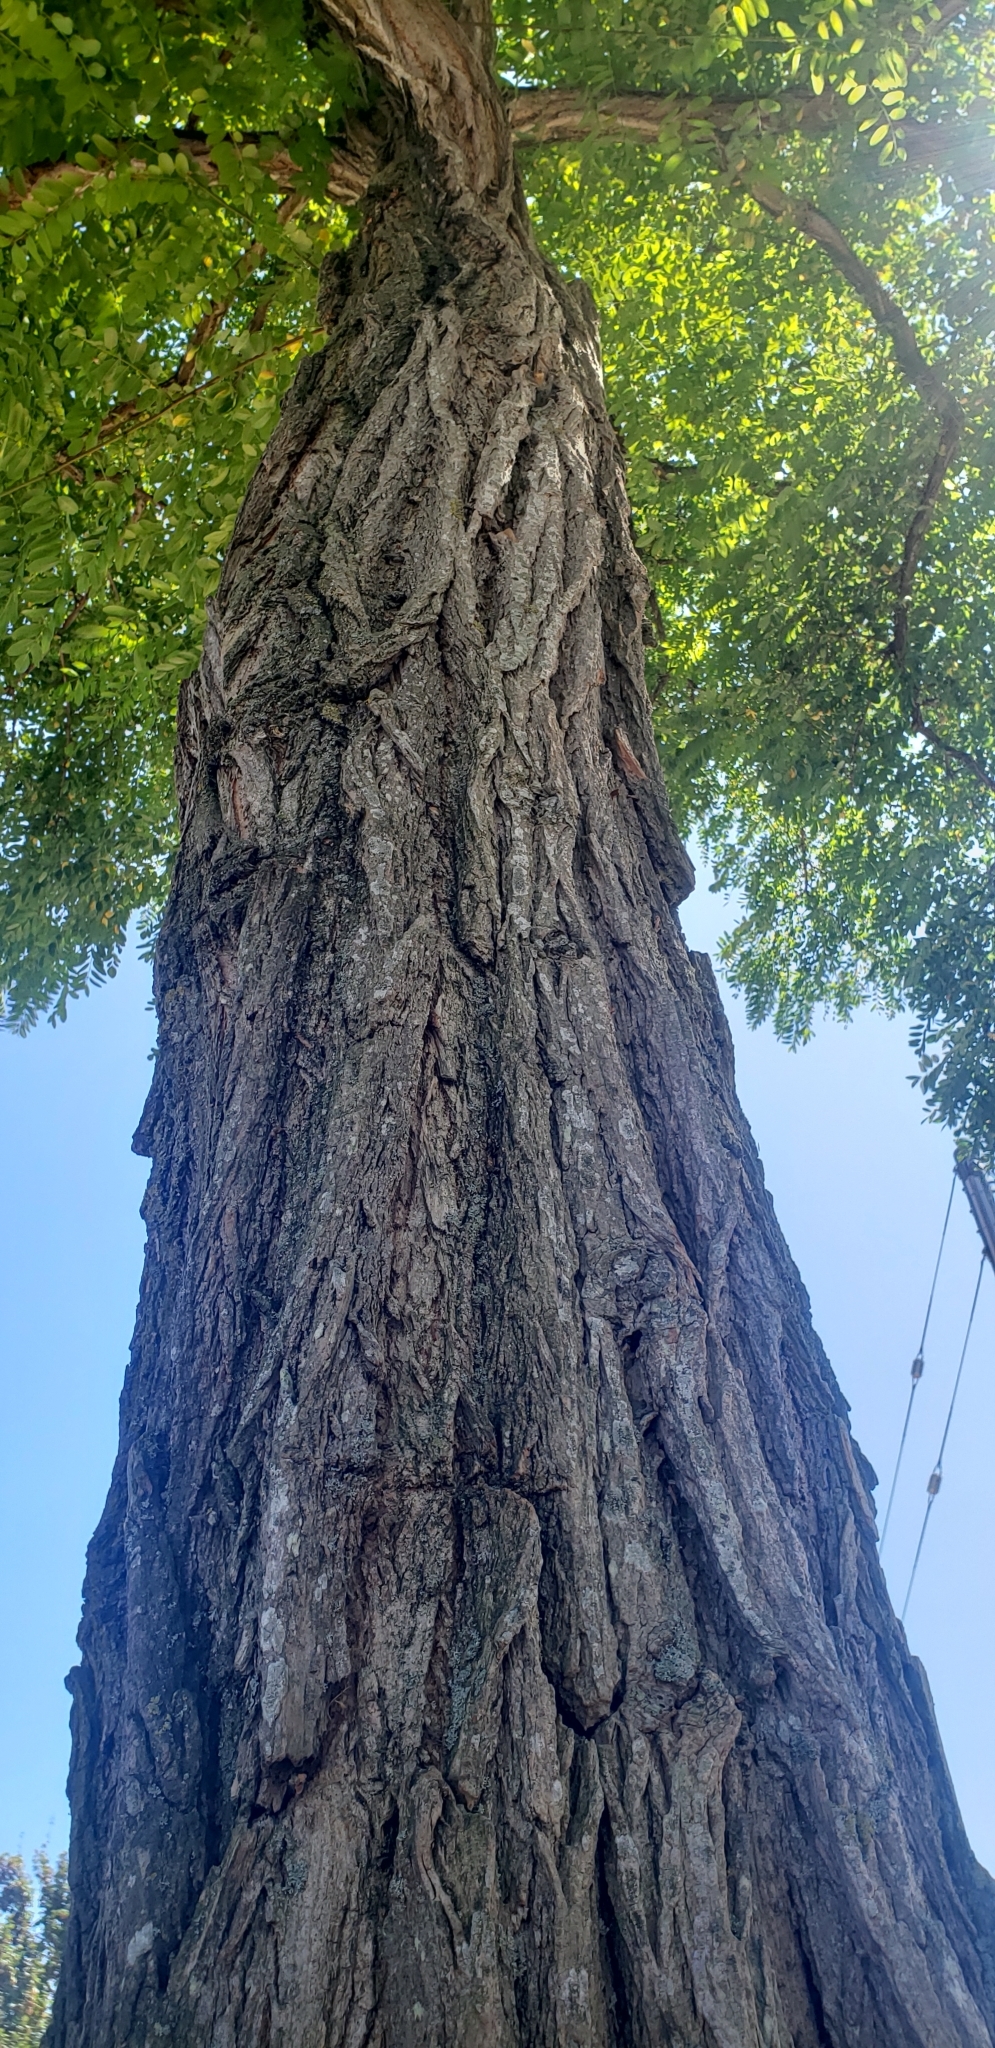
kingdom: Plantae
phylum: Tracheophyta
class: Magnoliopsida
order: Fabales
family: Fabaceae
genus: Robinia
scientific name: Robinia pseudoacacia
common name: Black locust
